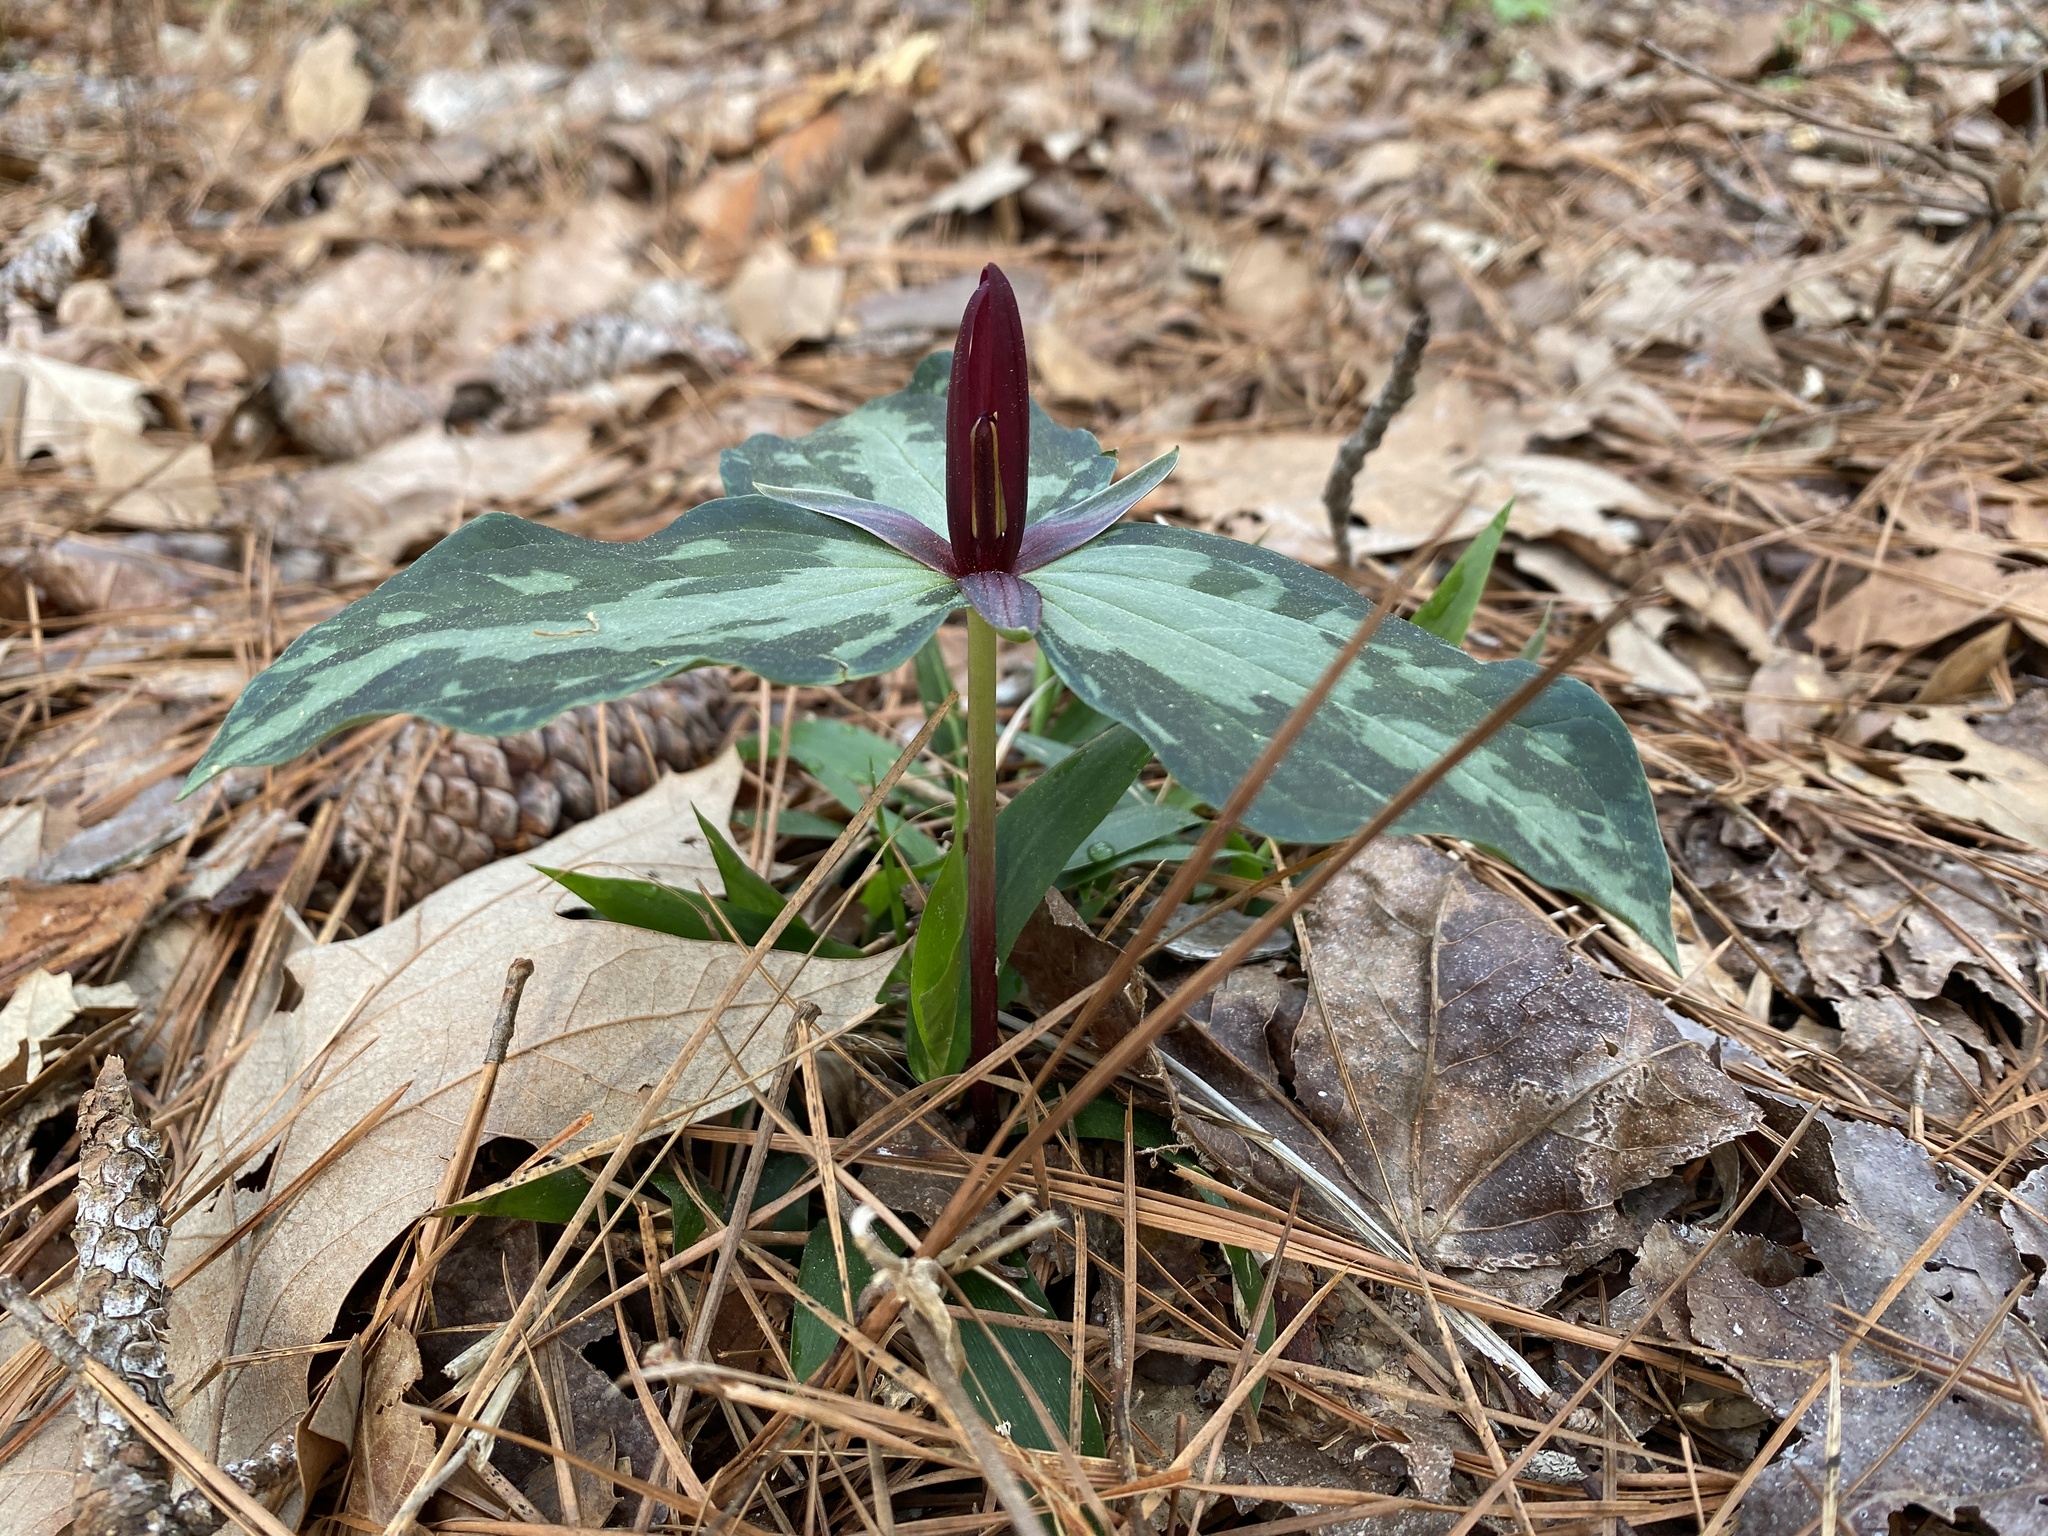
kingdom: Plantae
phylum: Tracheophyta
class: Liliopsida
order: Liliales
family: Melanthiaceae
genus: Trillium
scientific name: Trillium foetidissimum
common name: Mississippi river trillium
